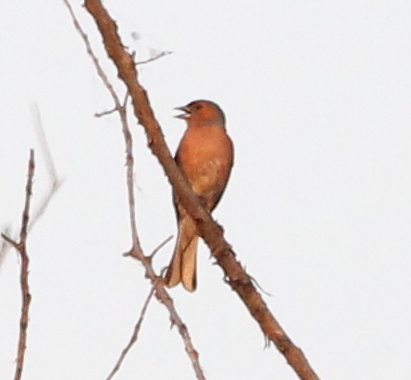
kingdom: Animalia
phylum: Chordata
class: Aves
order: Passeriformes
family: Fringillidae
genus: Fringilla
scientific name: Fringilla coelebs
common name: Common chaffinch
